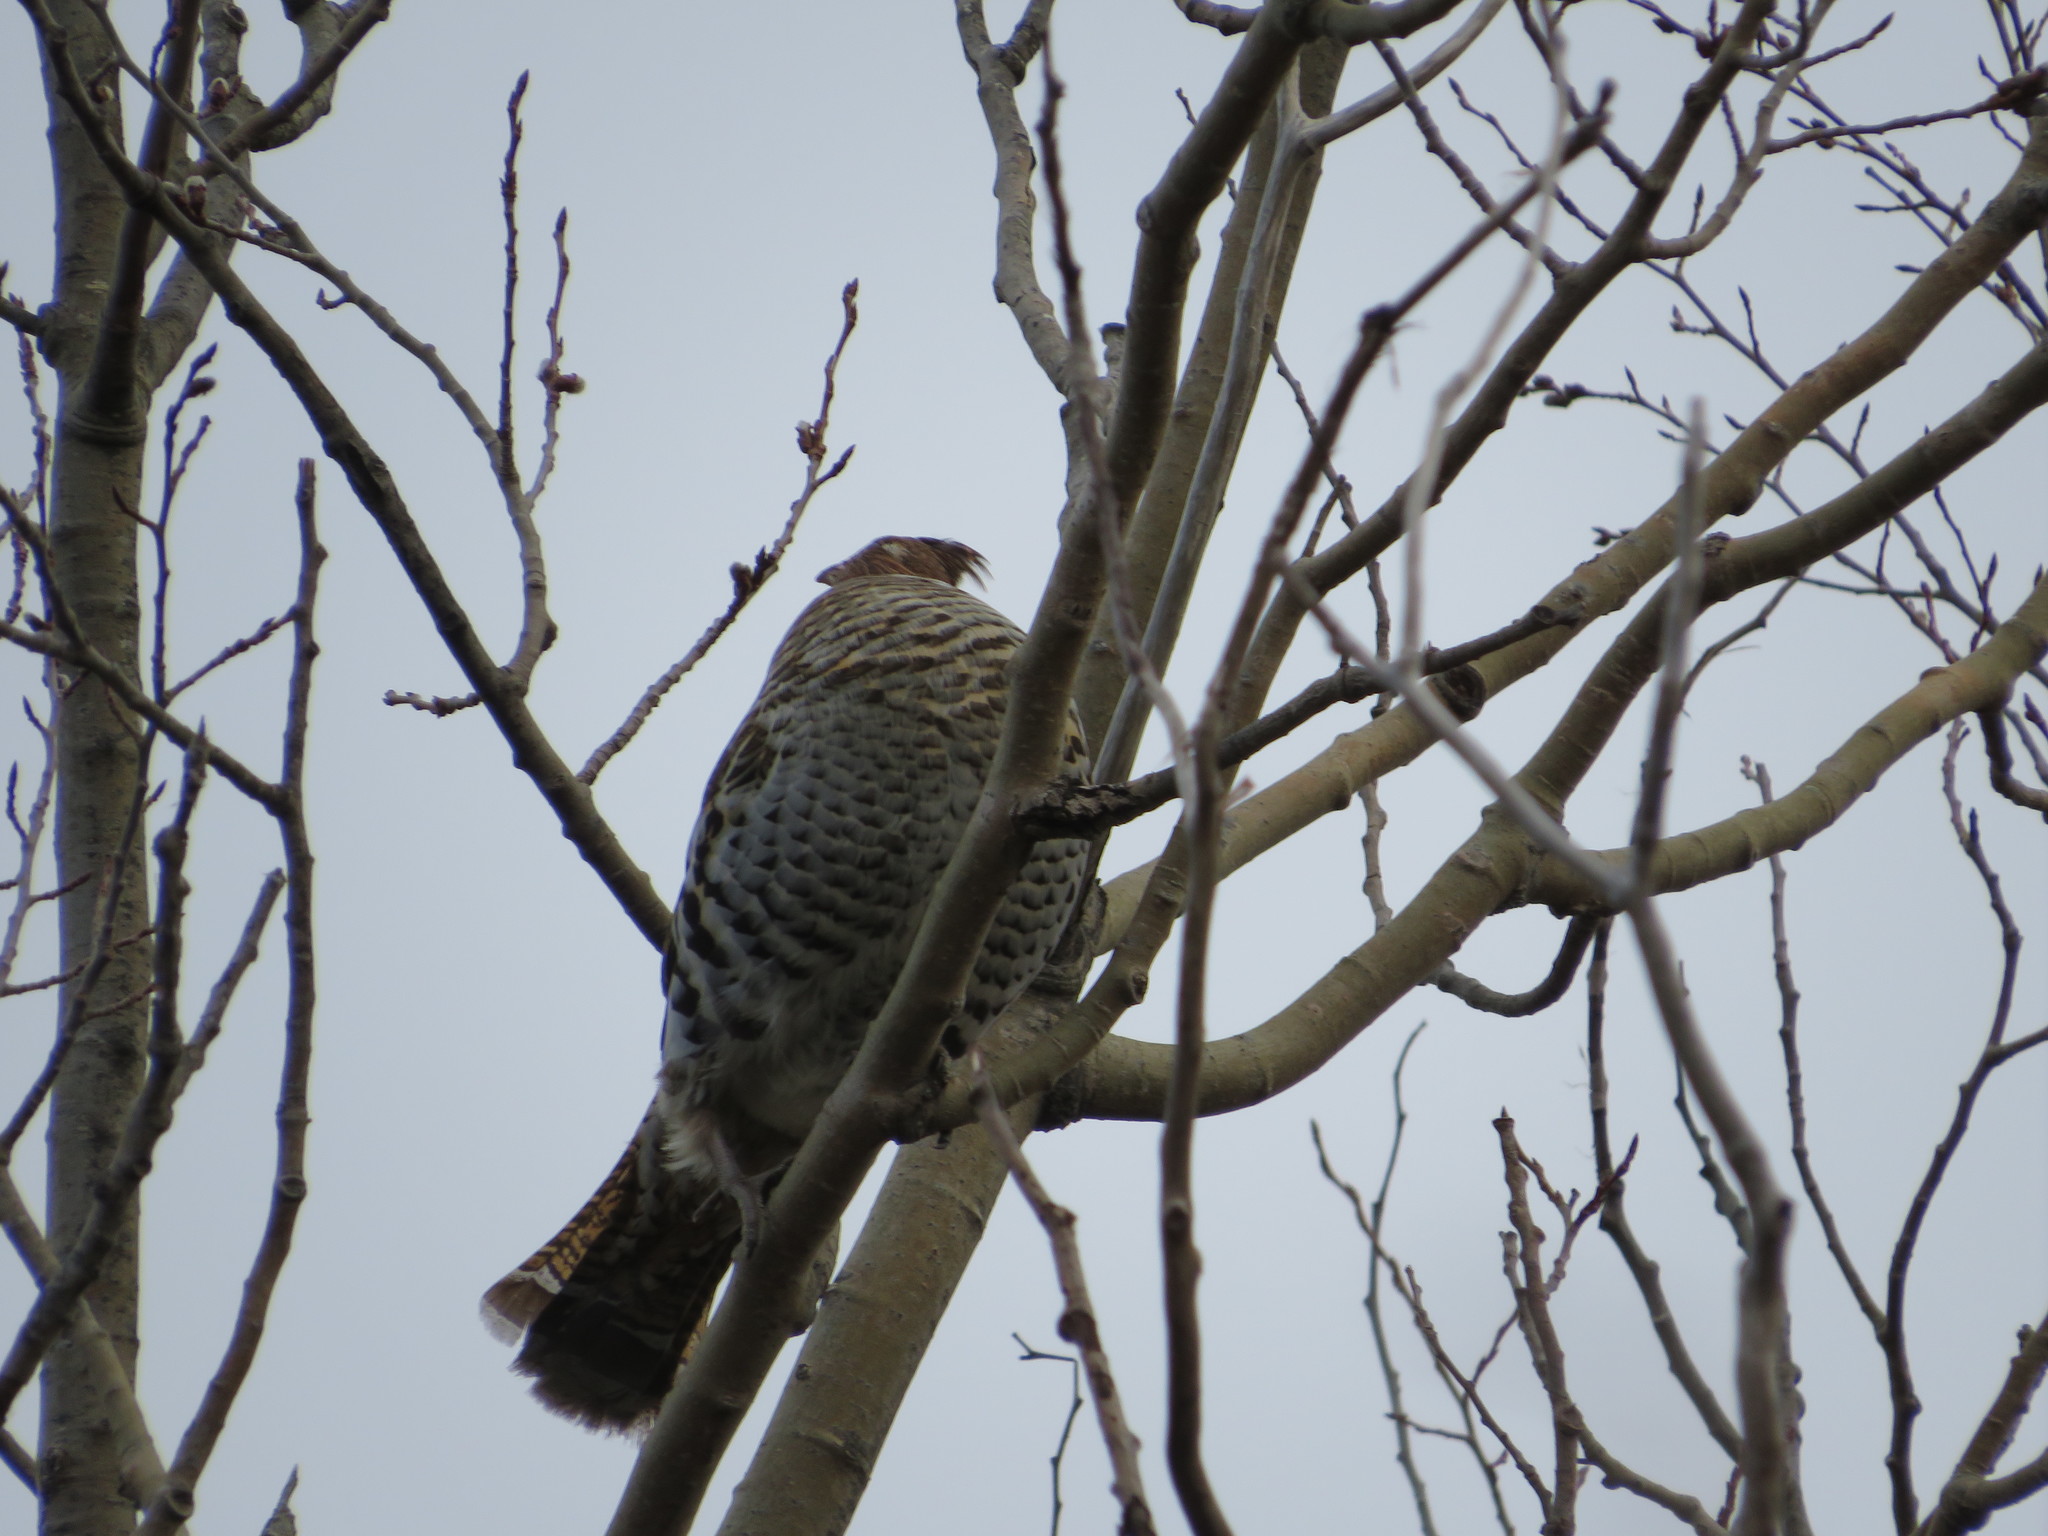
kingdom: Animalia
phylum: Chordata
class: Aves
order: Galliformes
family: Phasianidae
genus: Bonasa
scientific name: Bonasa umbellus
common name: Ruffed grouse
